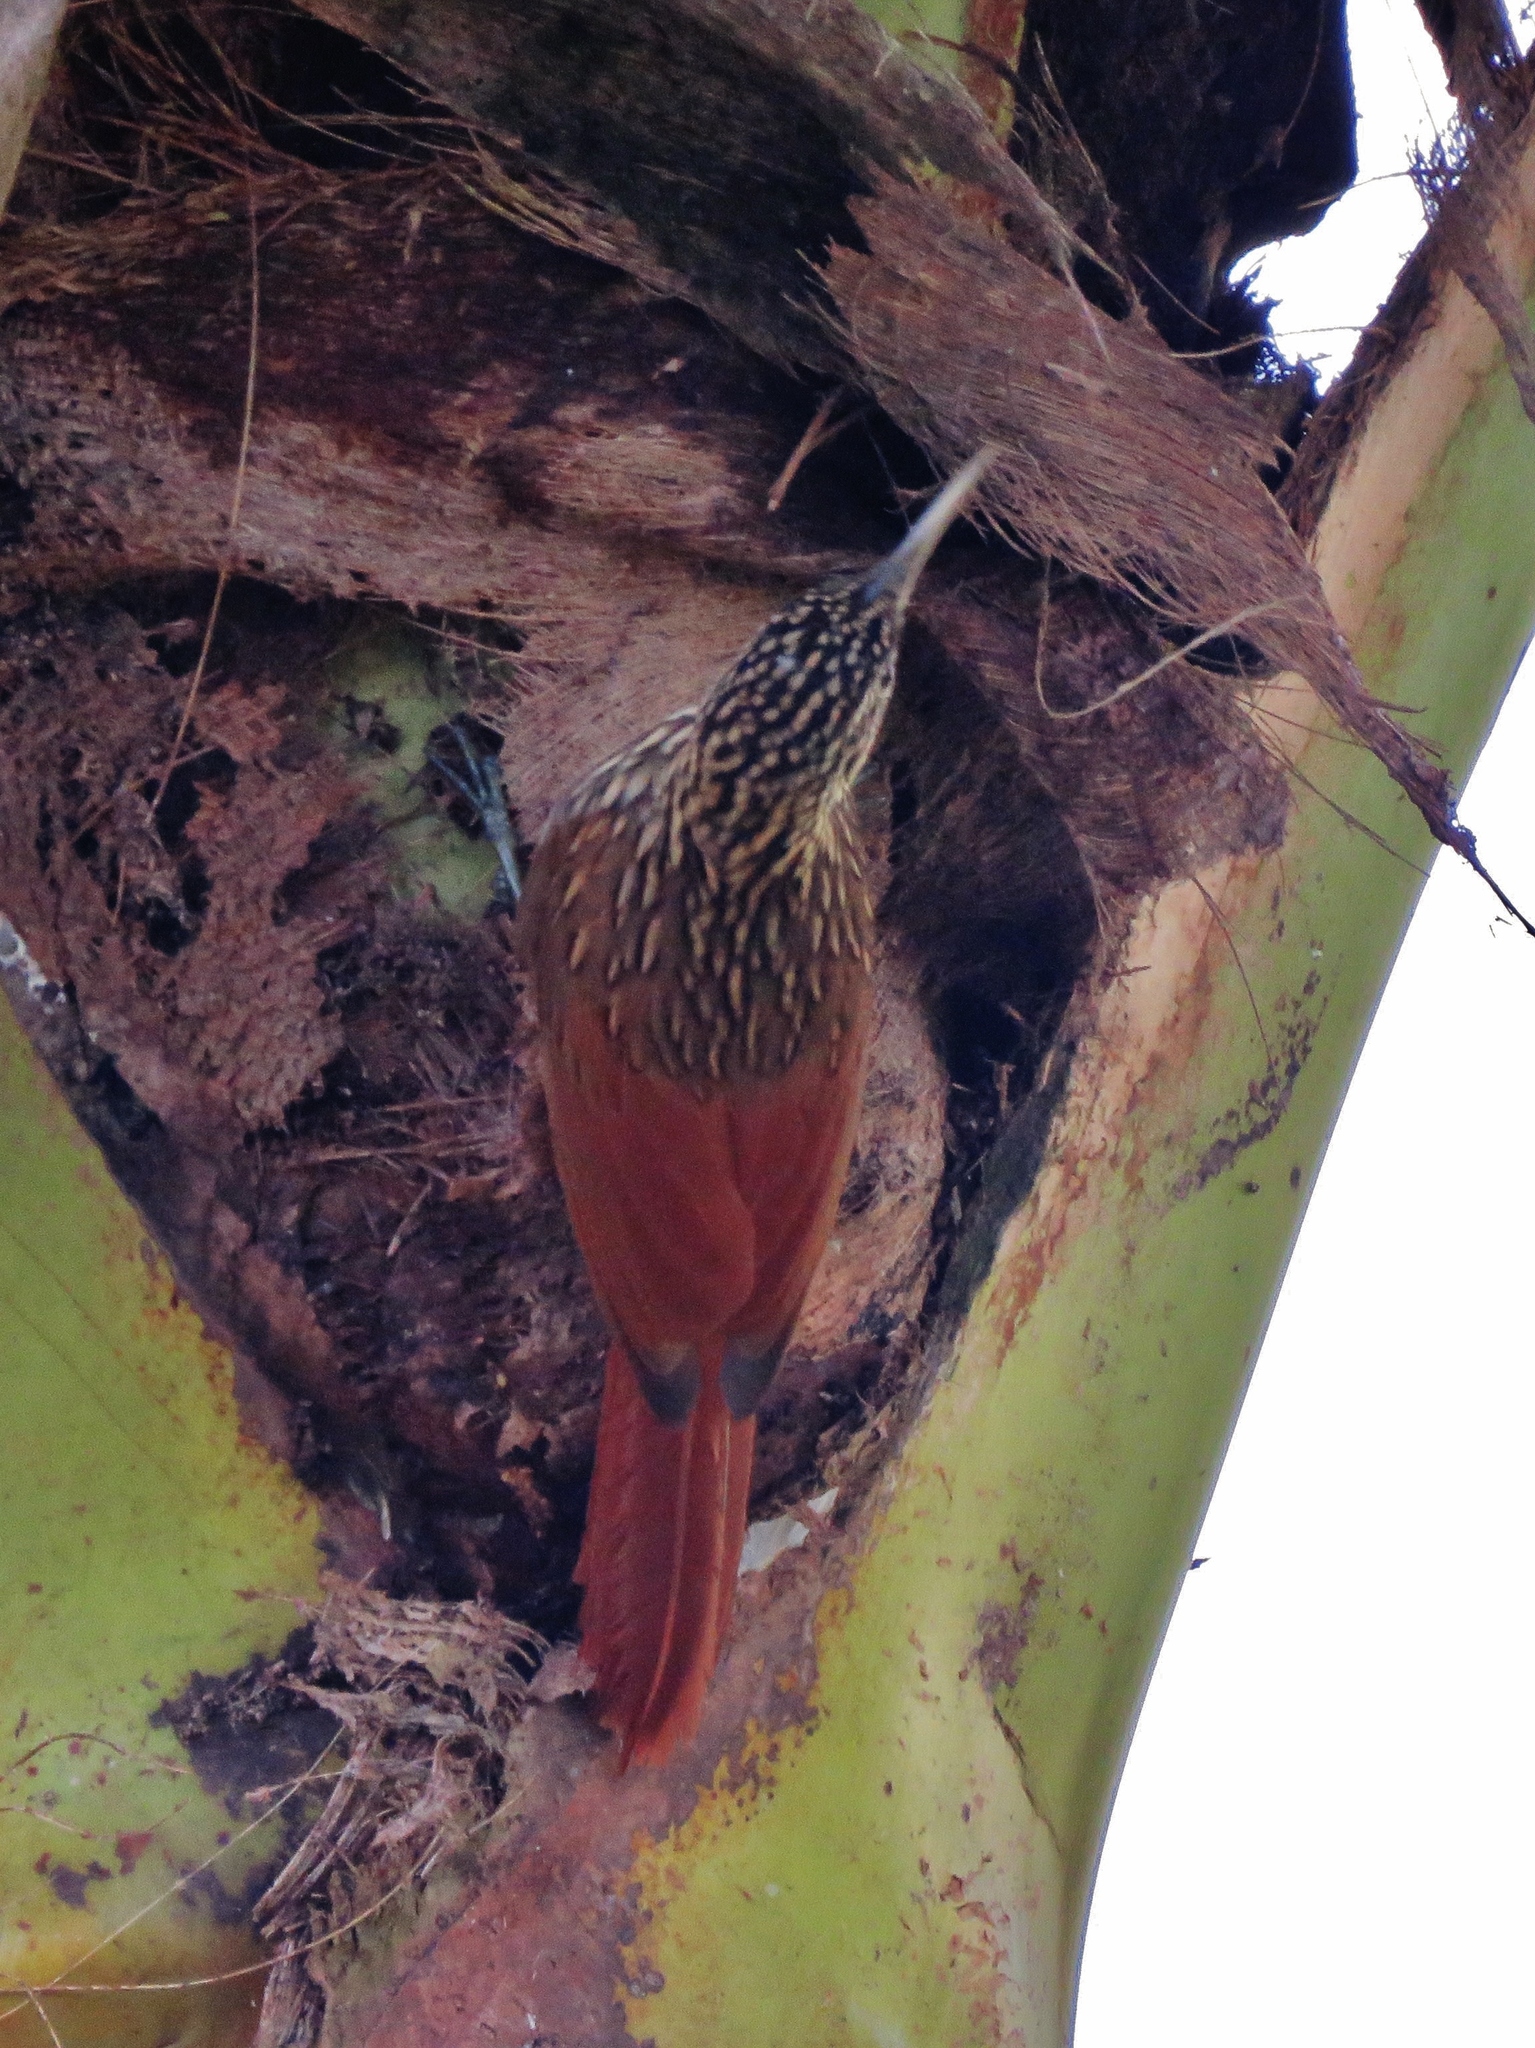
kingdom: Animalia
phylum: Chordata
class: Aves
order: Passeriformes
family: Furnariidae
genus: Xiphorhynchus
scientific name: Xiphorhynchus flavigaster
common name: Ivory-billed woodcreeper
